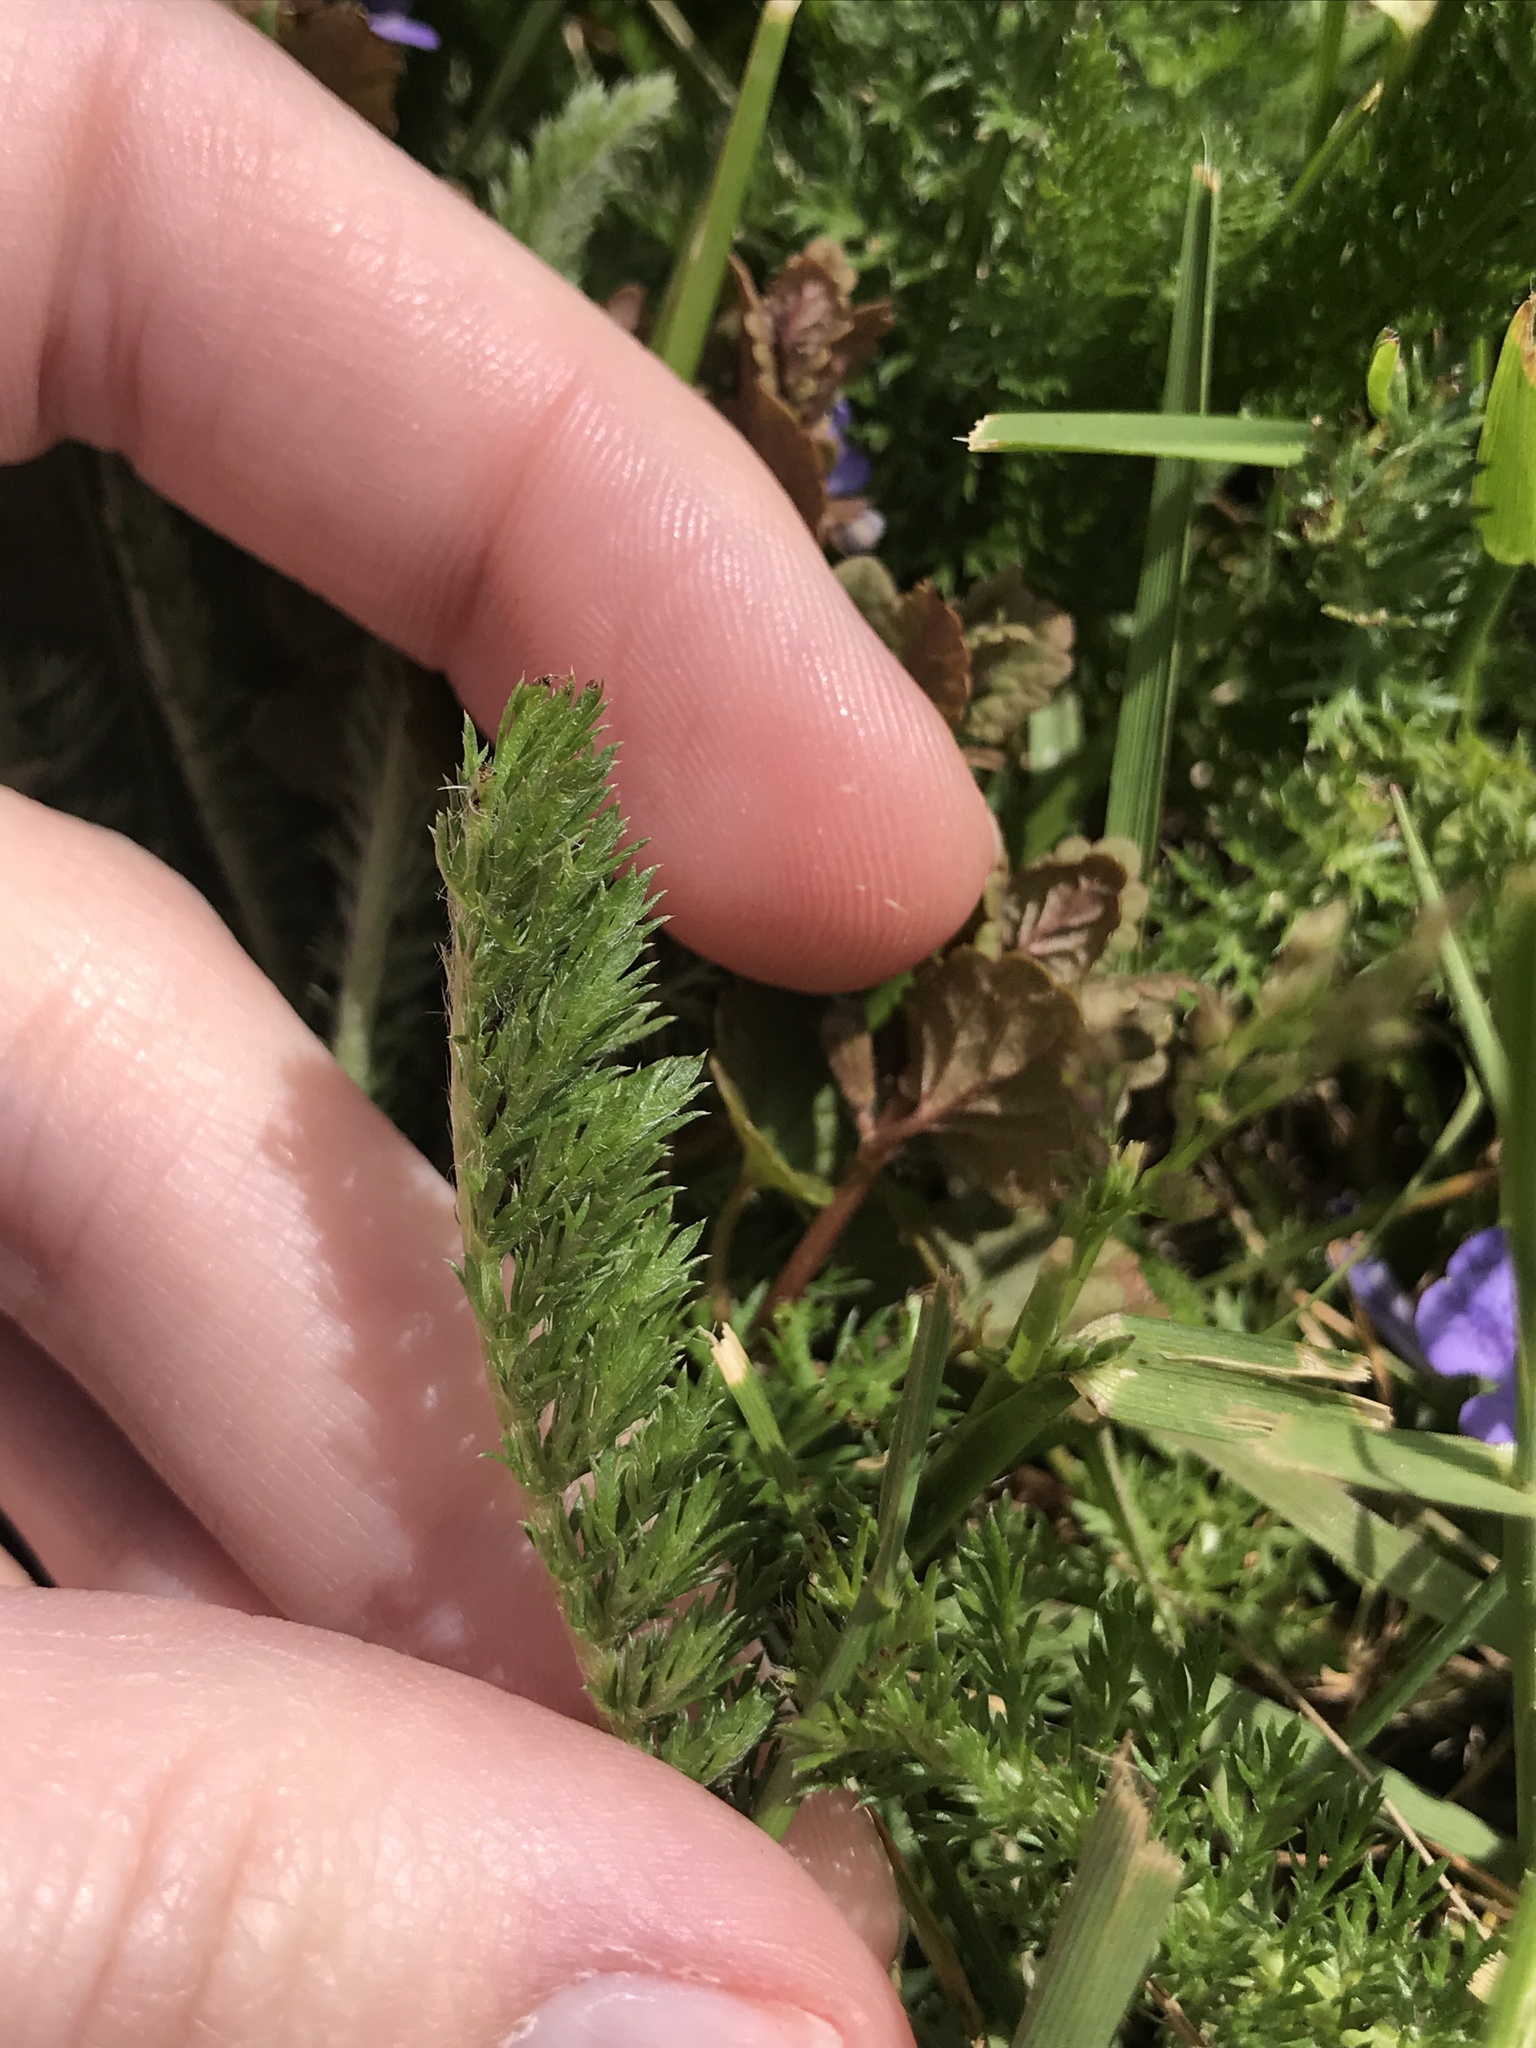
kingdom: Plantae
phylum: Tracheophyta
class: Magnoliopsida
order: Asterales
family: Asteraceae
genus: Achillea
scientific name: Achillea millefolium
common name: Yarrow
